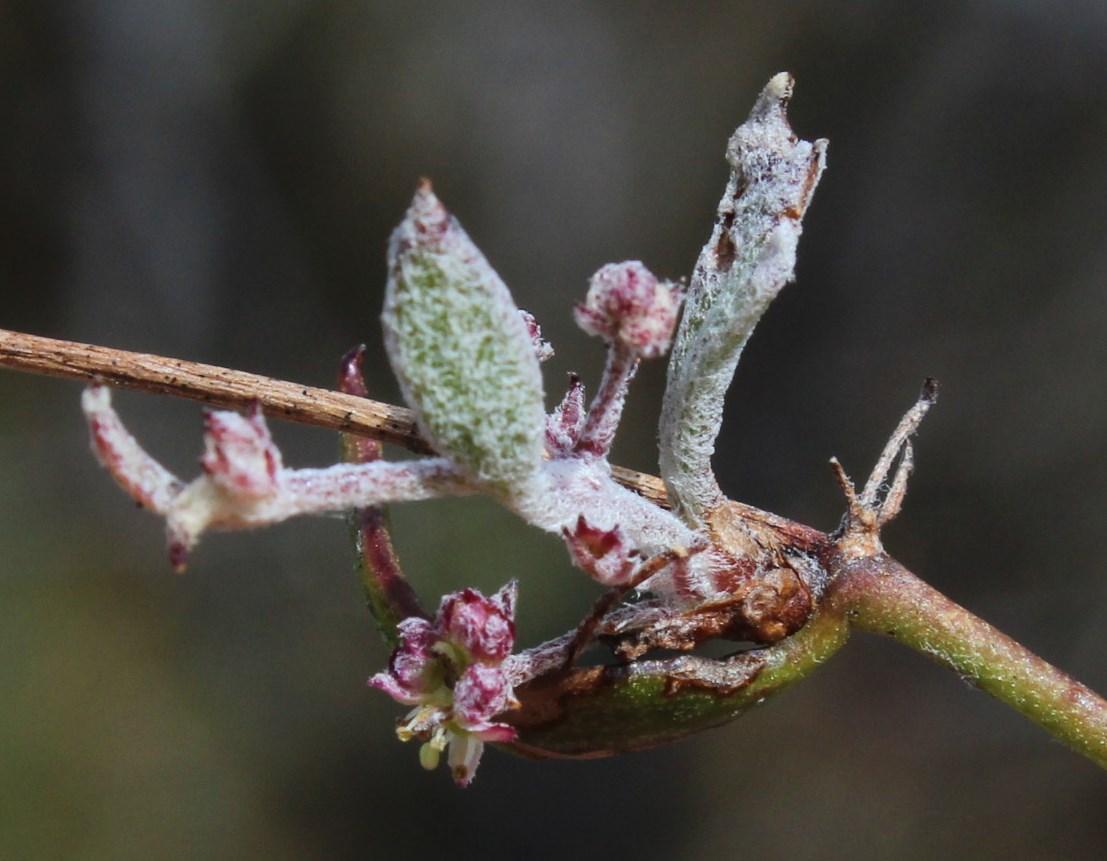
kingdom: Plantae
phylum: Tracheophyta
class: Magnoliopsida
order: Apiales
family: Apiaceae
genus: Centella
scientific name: Centella glabrata
